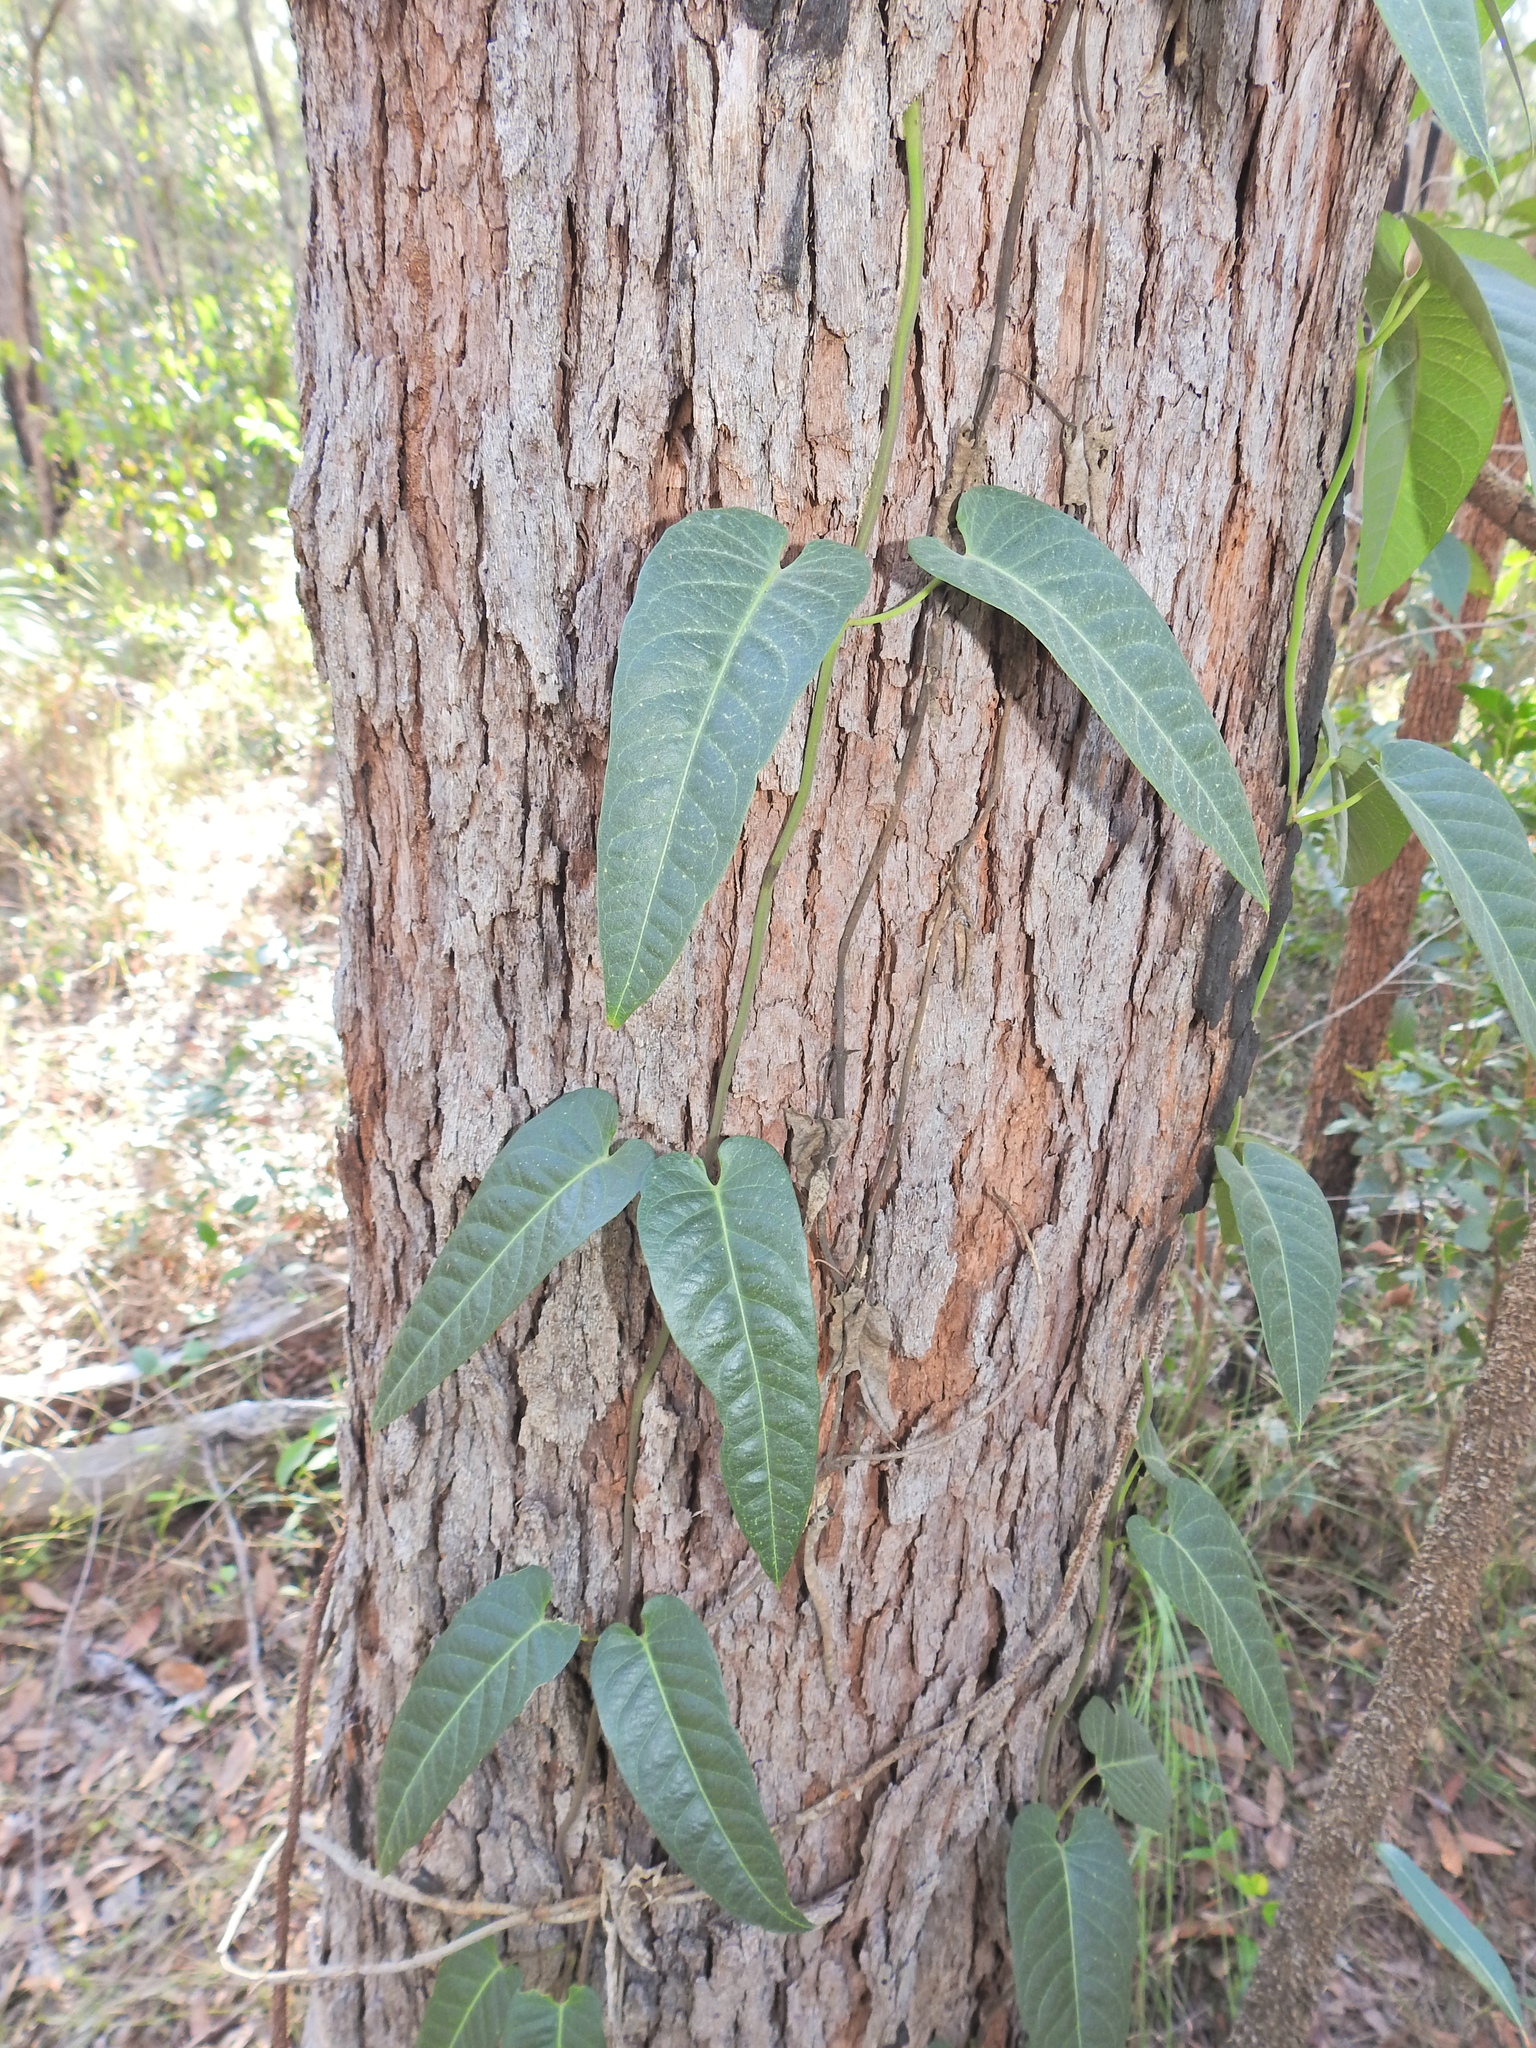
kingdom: Plantae
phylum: Tracheophyta
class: Magnoliopsida
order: Gentianales
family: Apocynaceae
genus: Parsonsia
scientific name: Parsonsia brisbanensis
